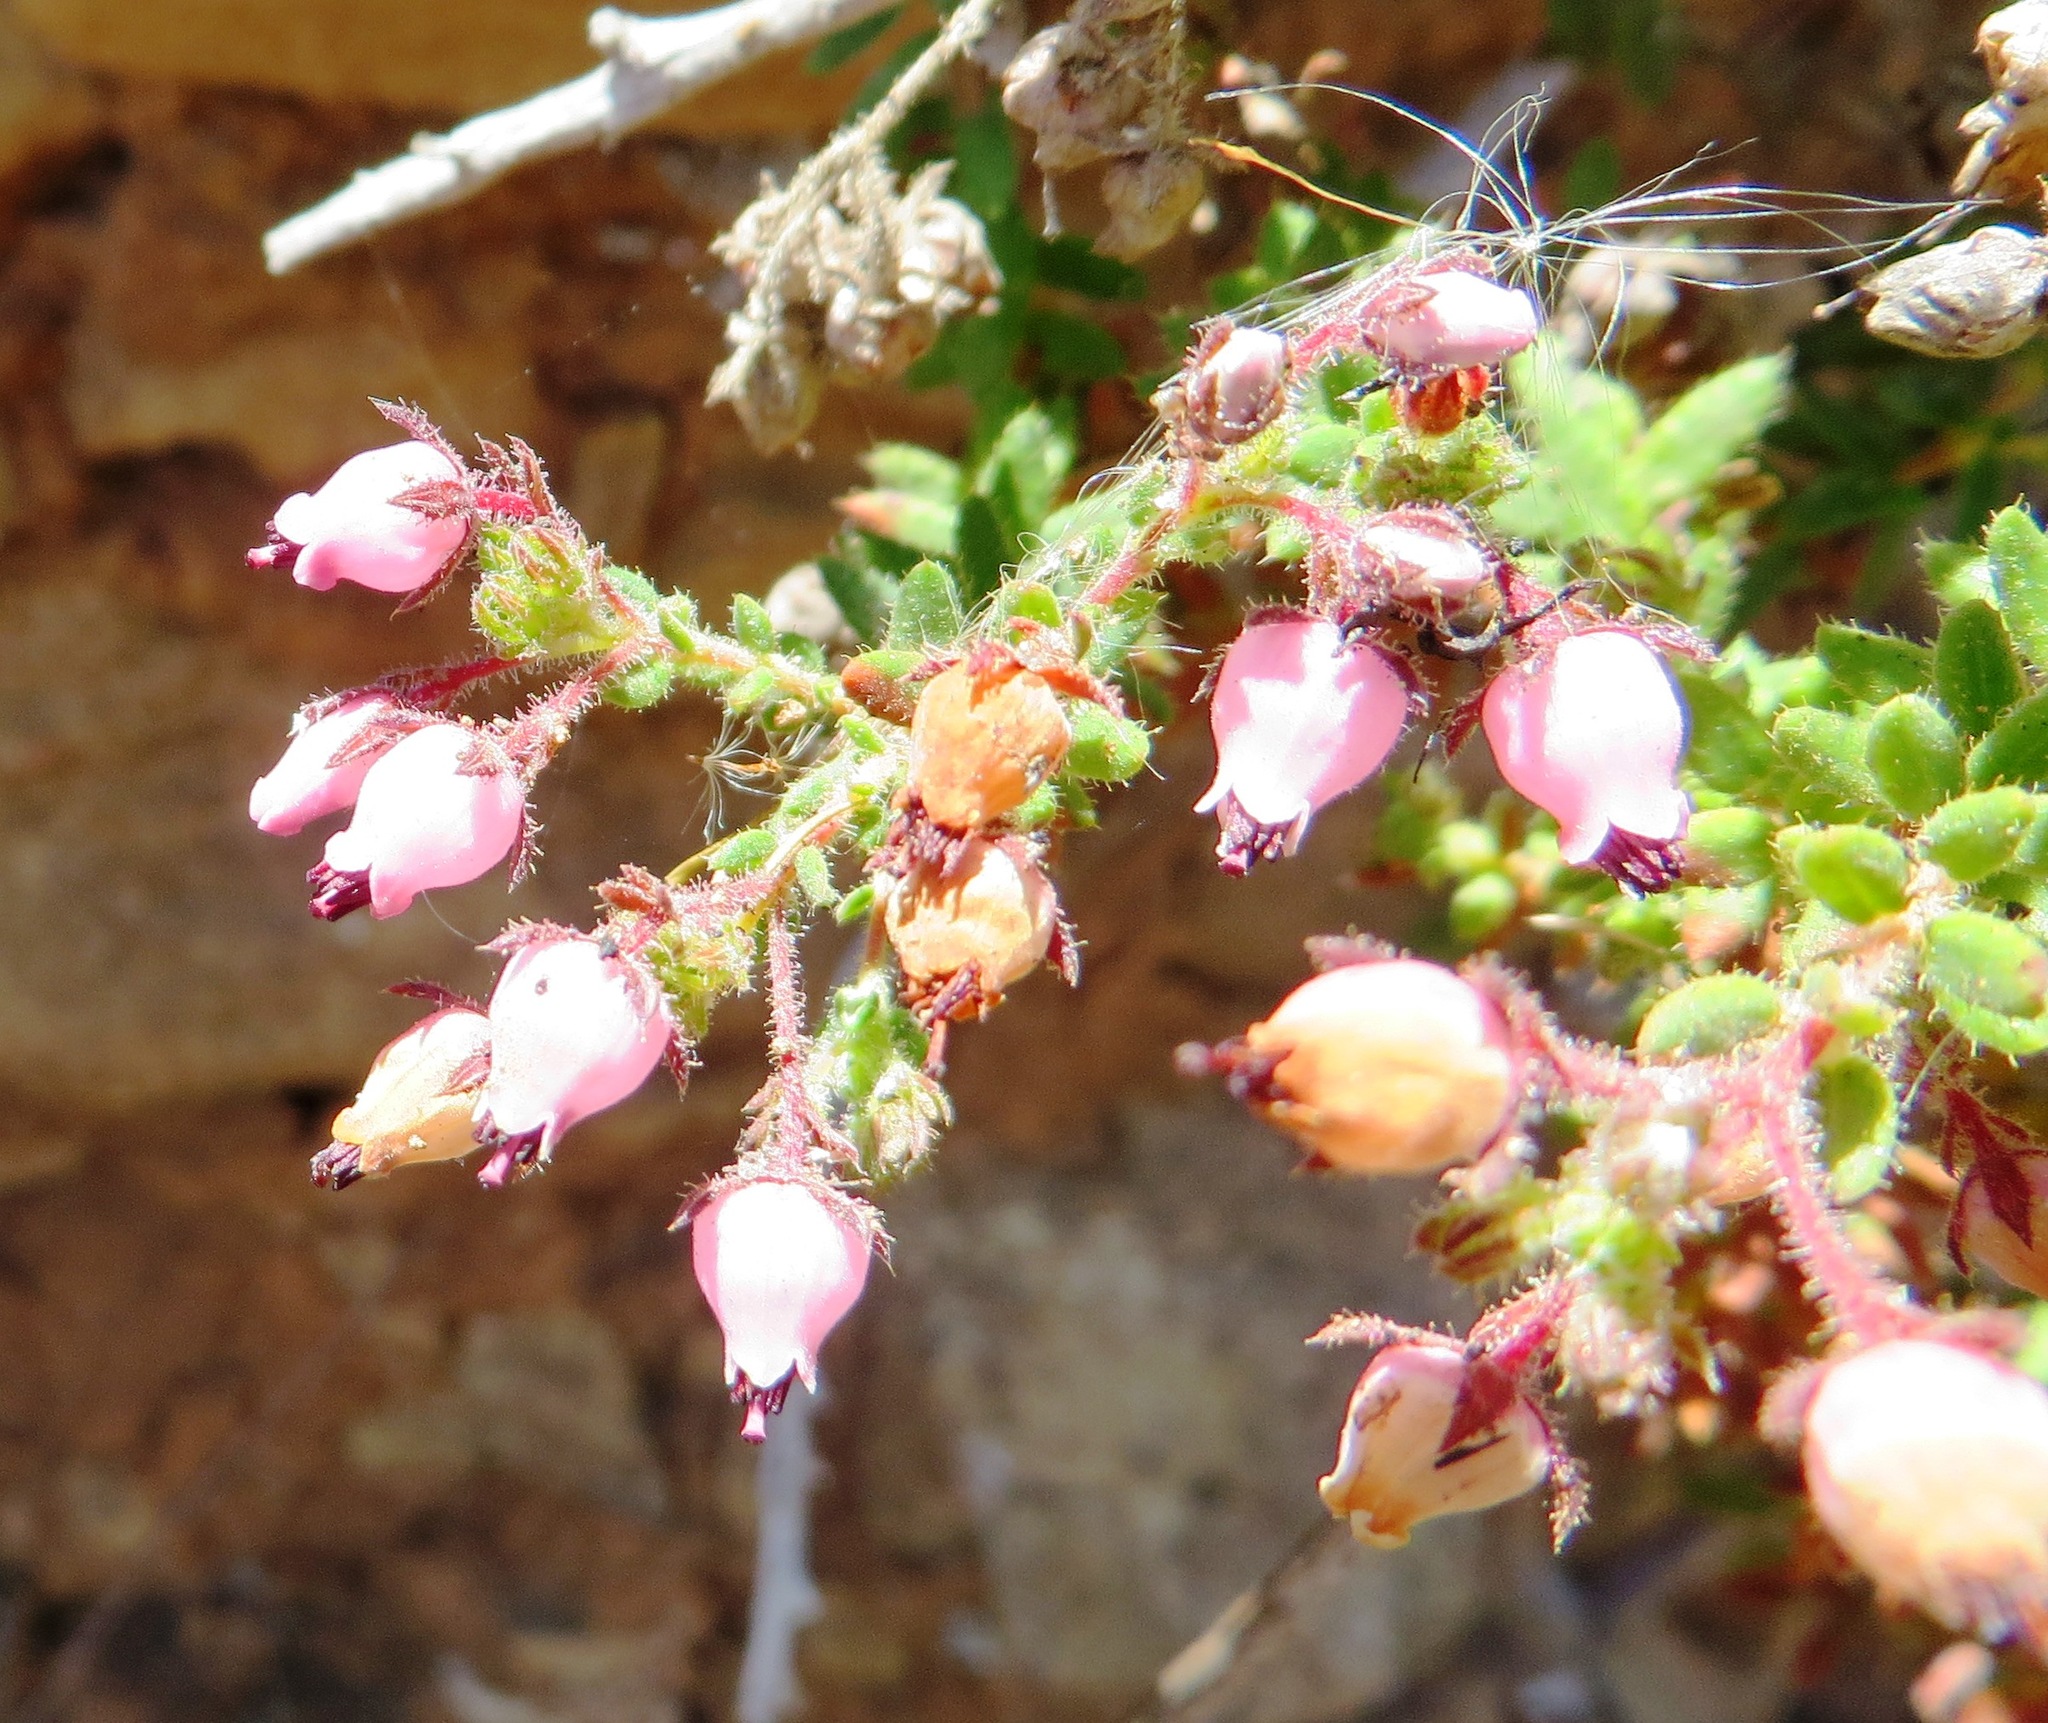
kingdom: Plantae
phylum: Tracheophyta
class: Magnoliopsida
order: Ericales
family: Ericaceae
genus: Erica
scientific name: Erica hirta
